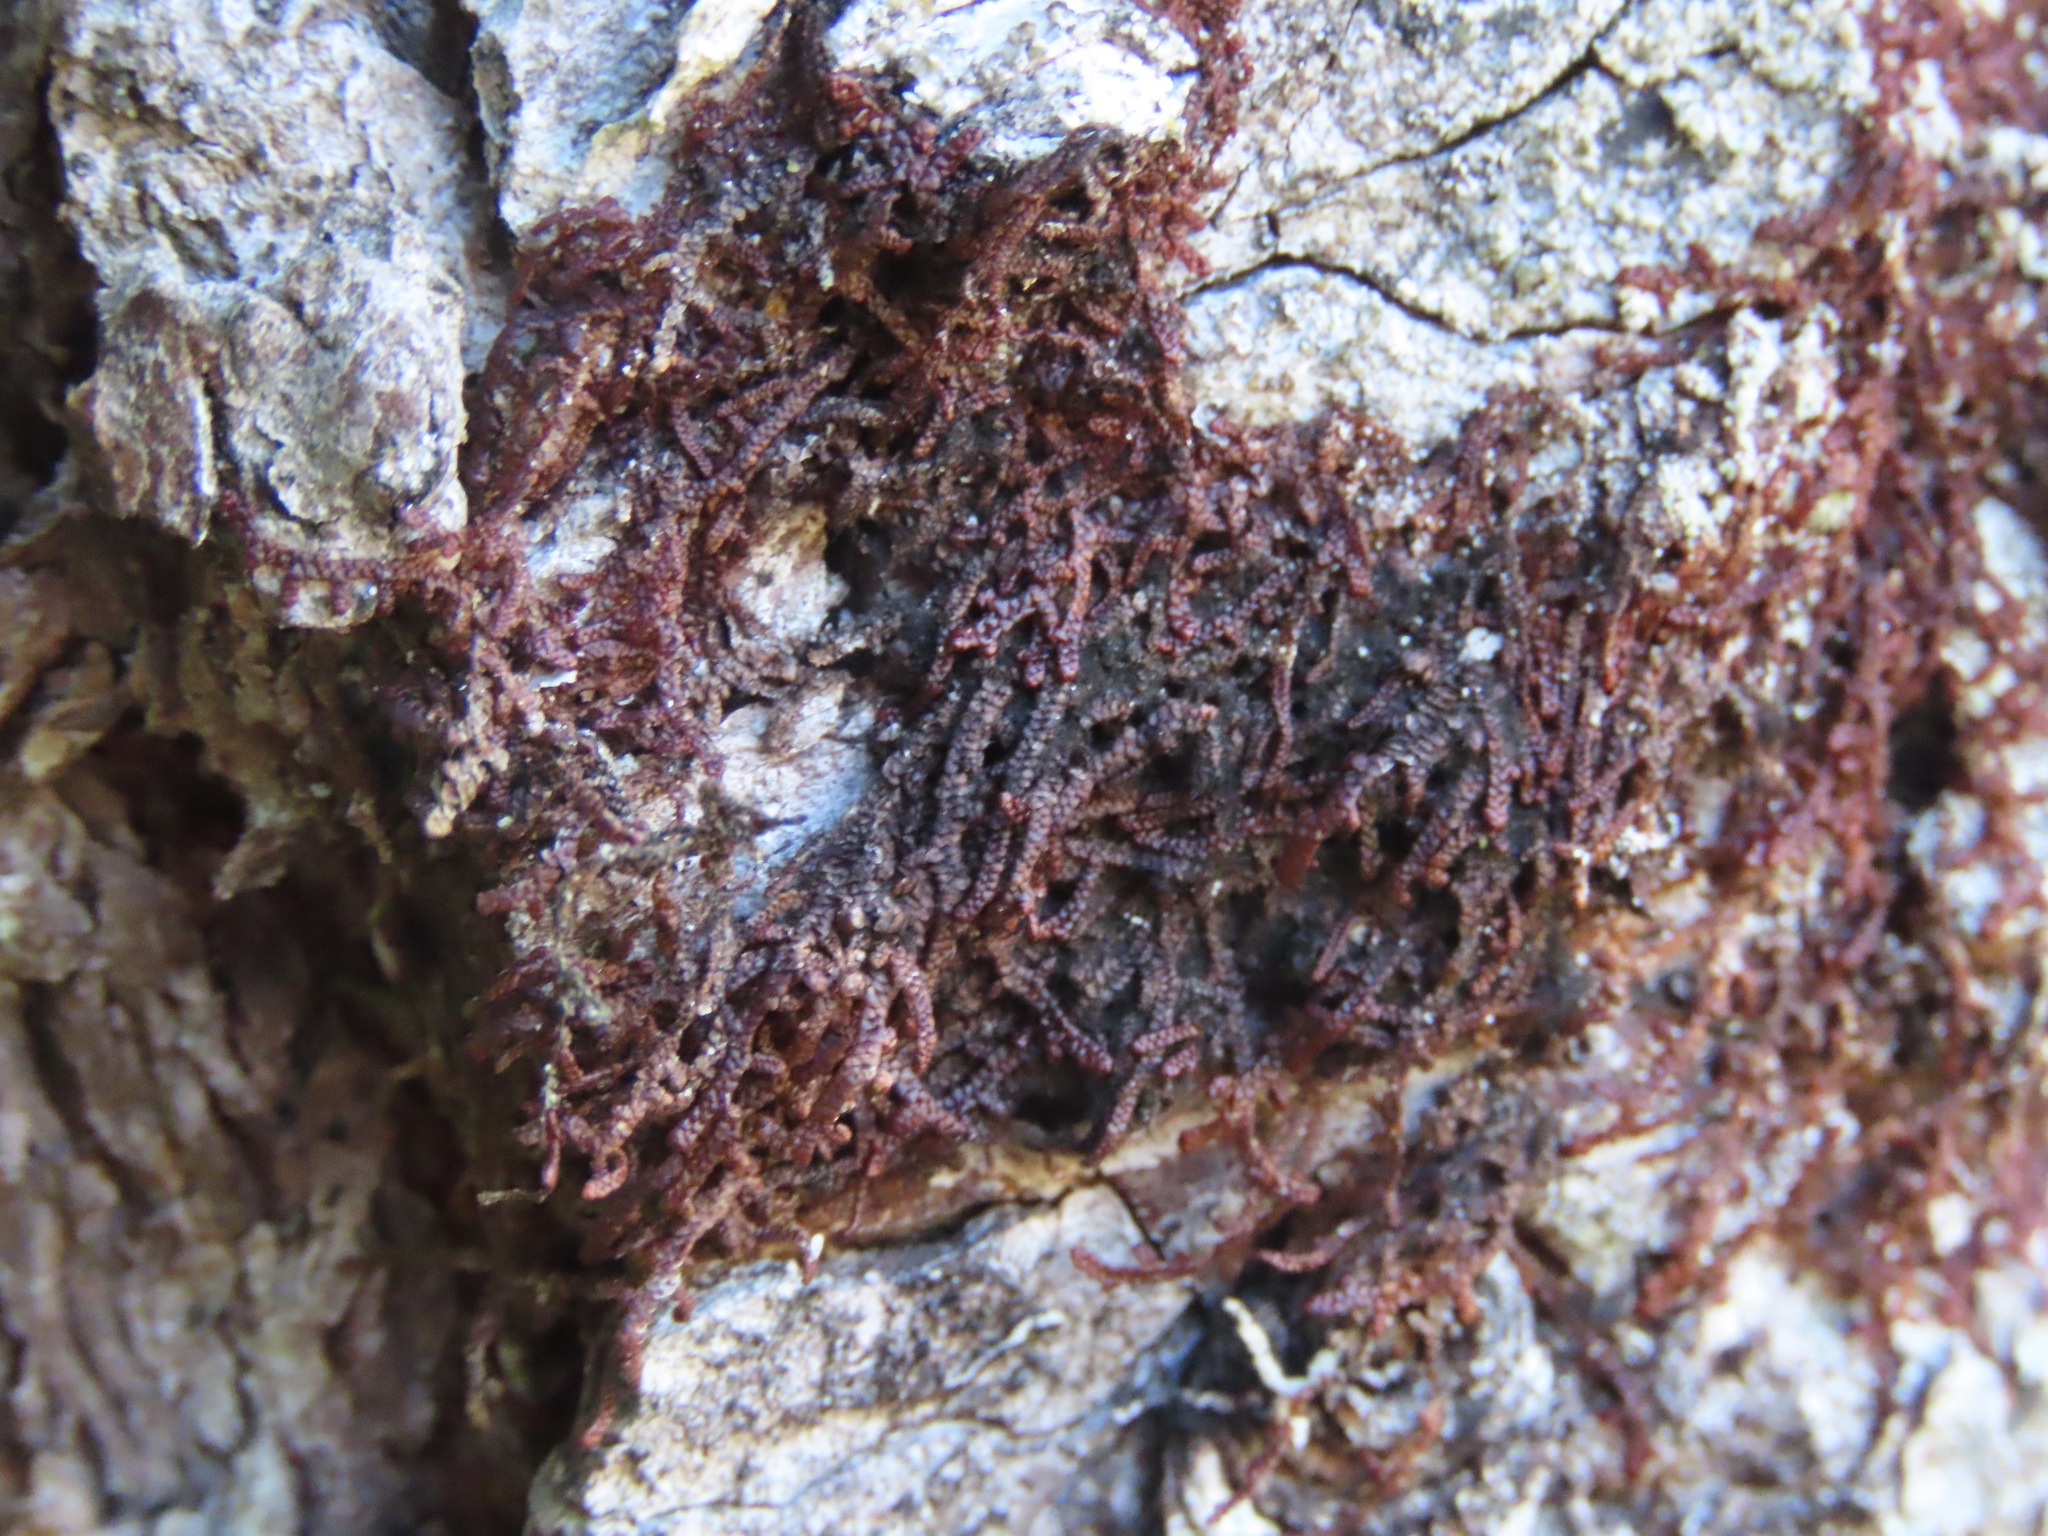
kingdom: Plantae
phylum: Marchantiophyta
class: Jungermanniopsida
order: Porellales
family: Frullaniaceae
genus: Frullania
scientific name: Frullania nisquallensis
